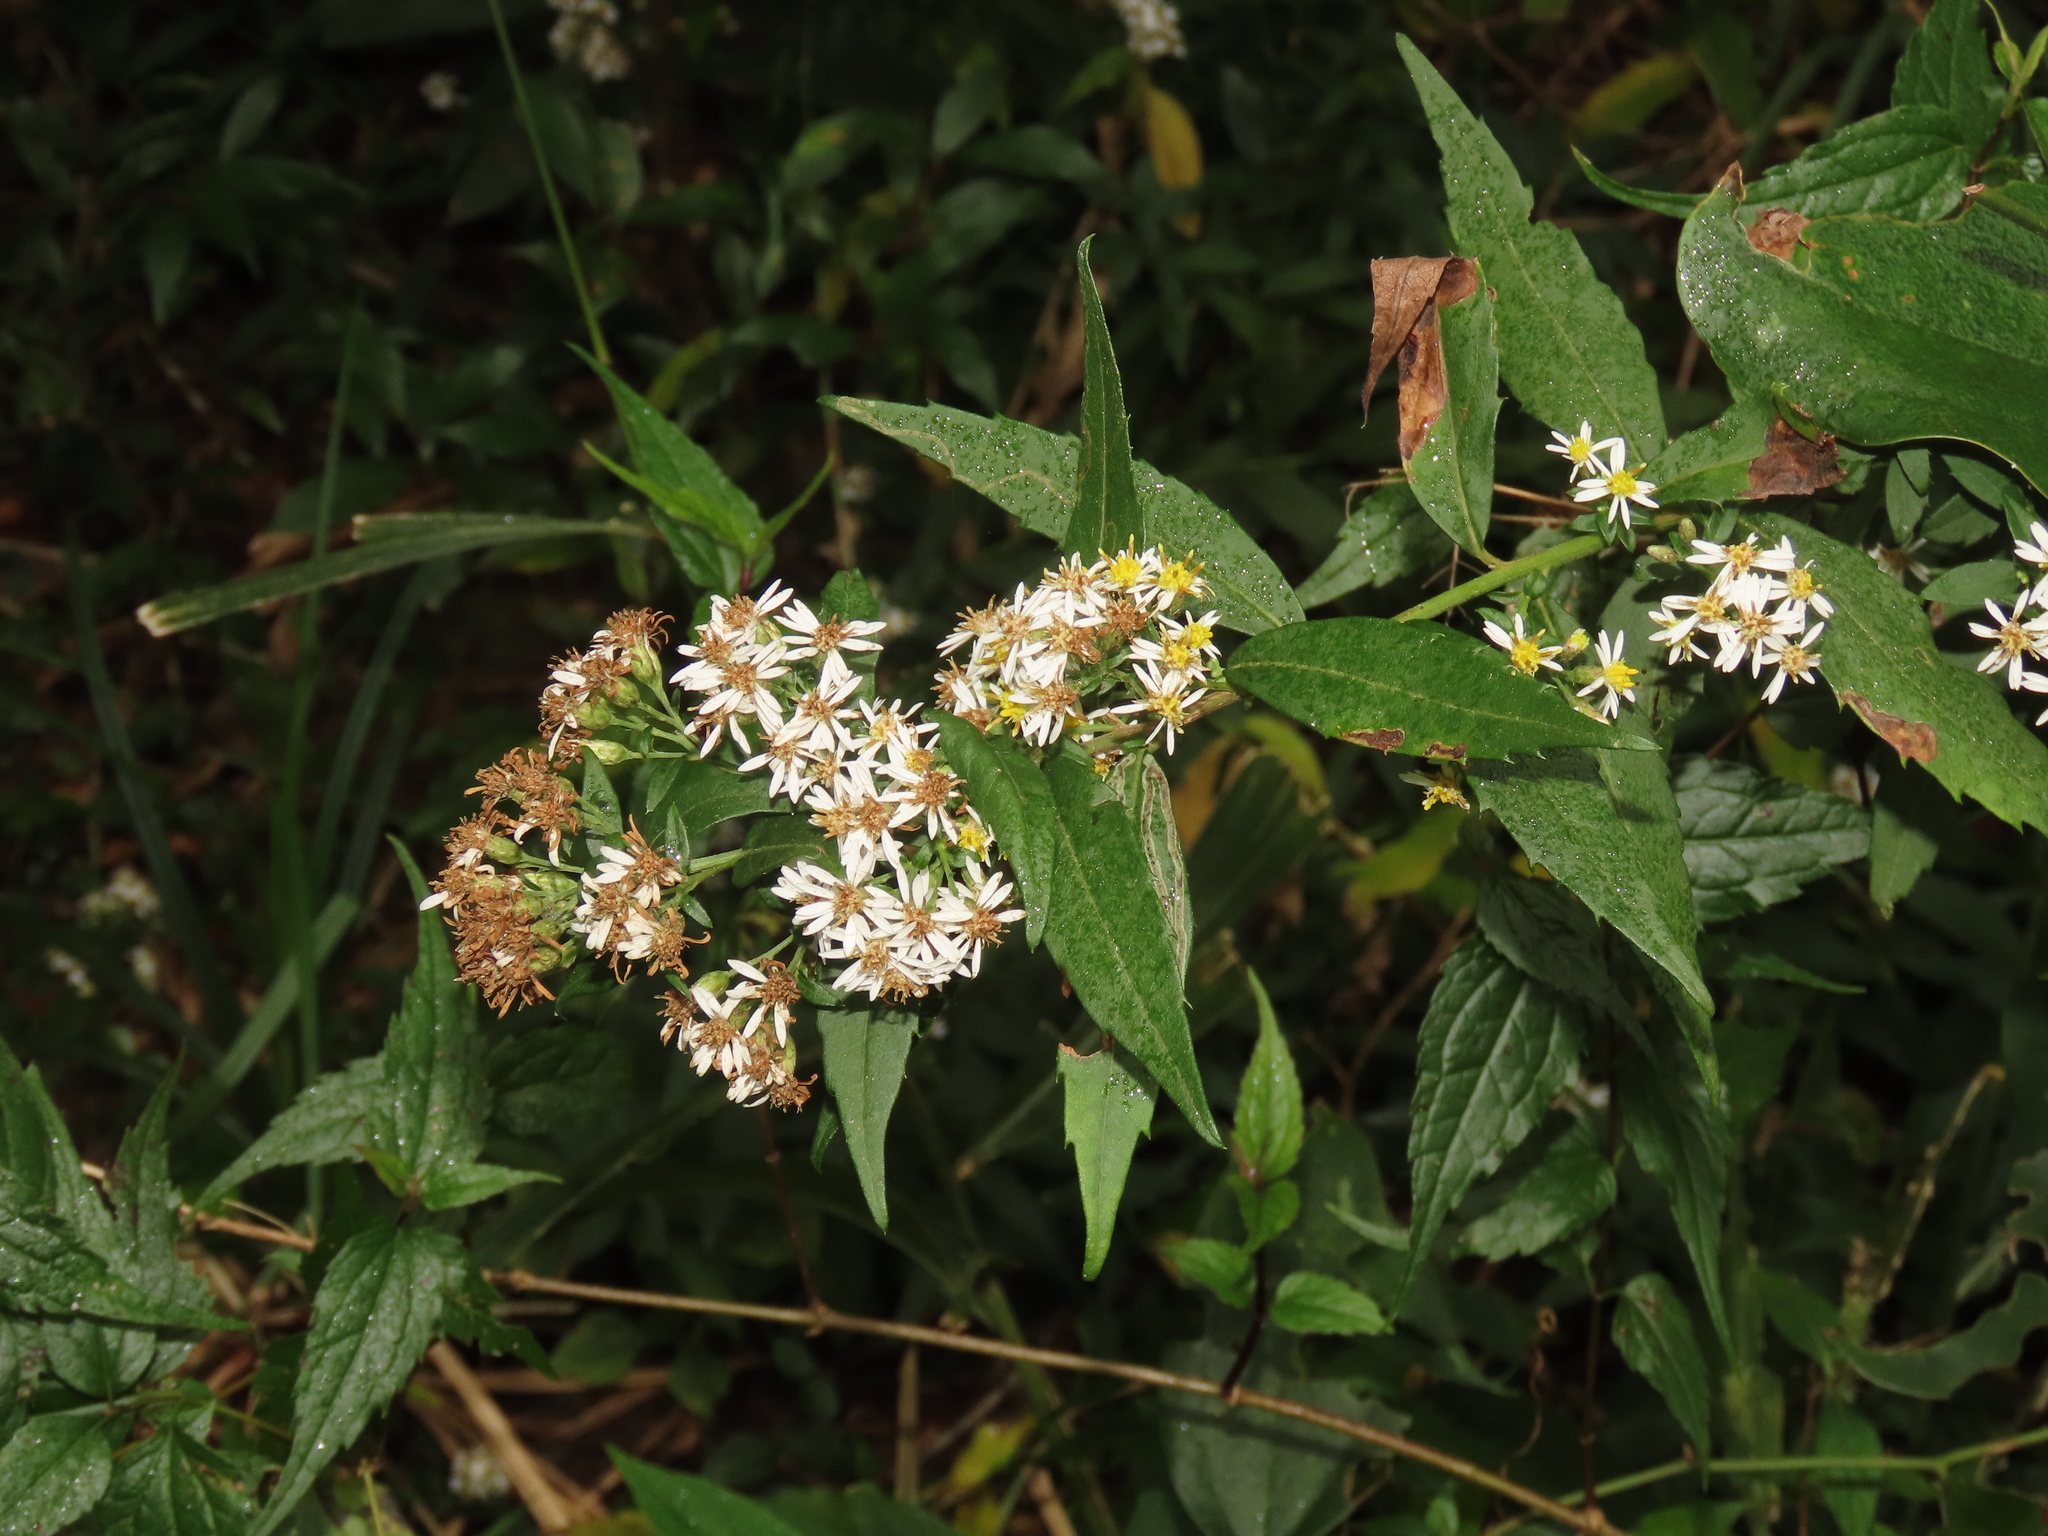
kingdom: Plantae
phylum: Tracheophyta
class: Magnoliopsida
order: Asterales
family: Asteraceae
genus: Aster
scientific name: Aster taiwanensis
